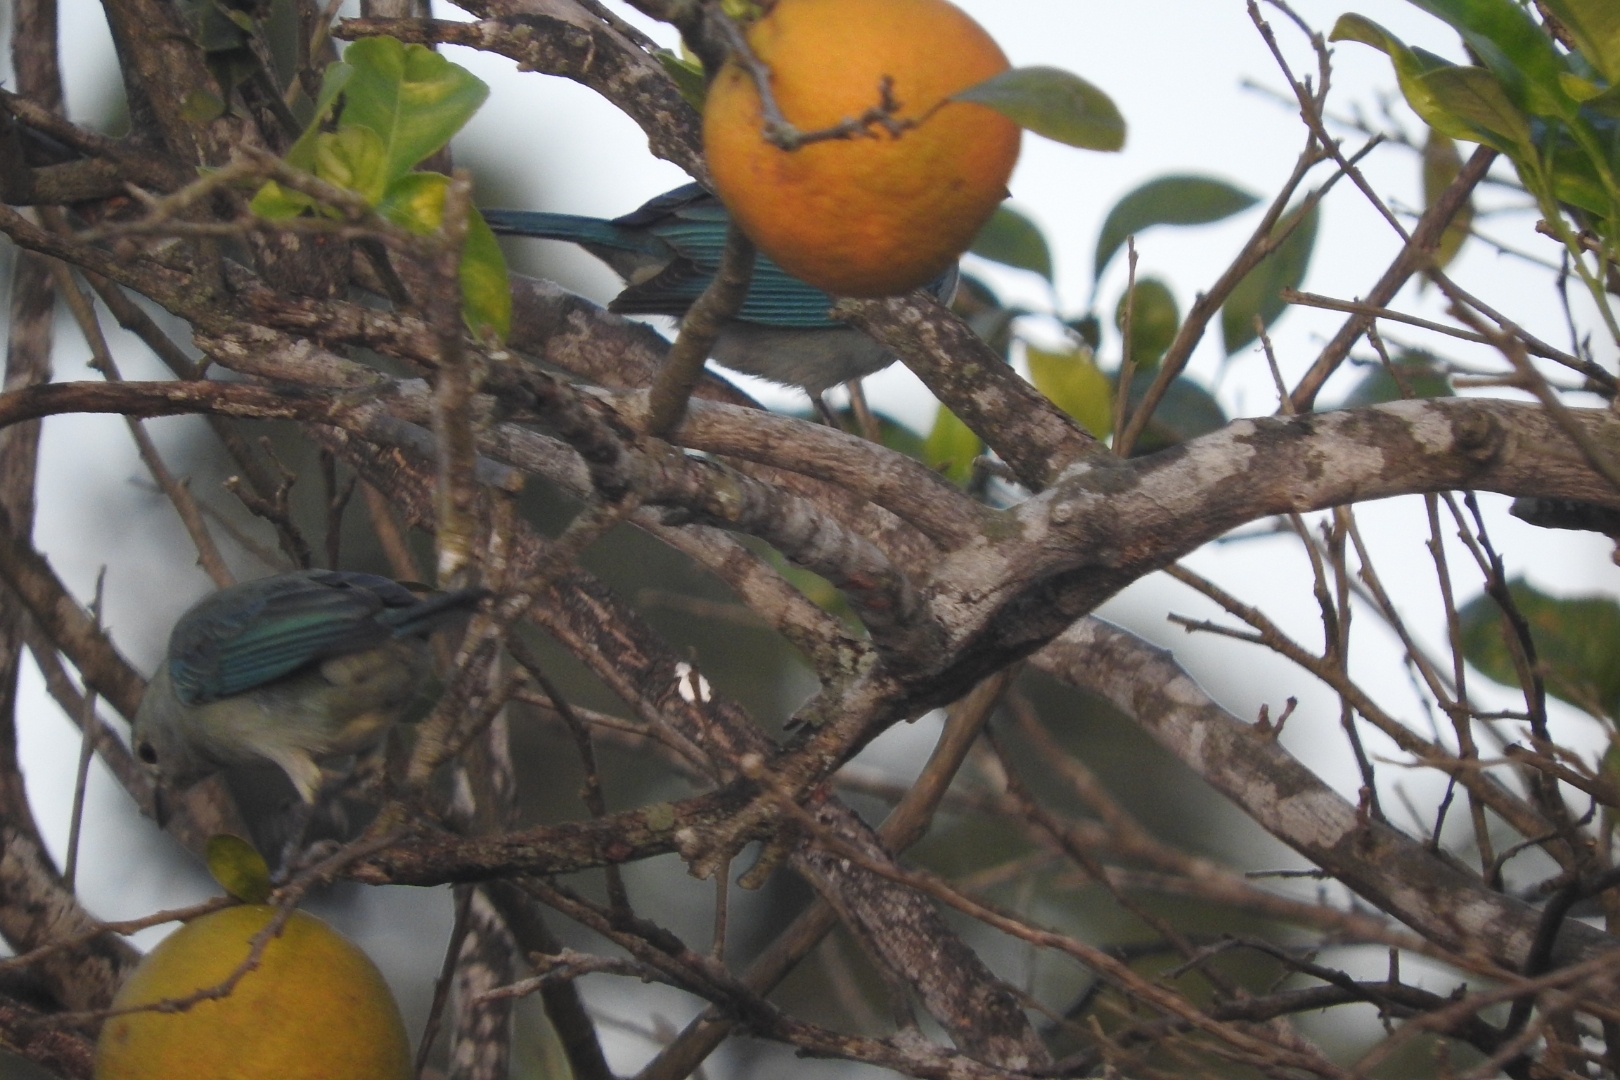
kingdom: Animalia
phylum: Chordata
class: Aves
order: Passeriformes
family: Thraupidae
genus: Thraupis
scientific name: Thraupis episcopus
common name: Blue-grey tanager
